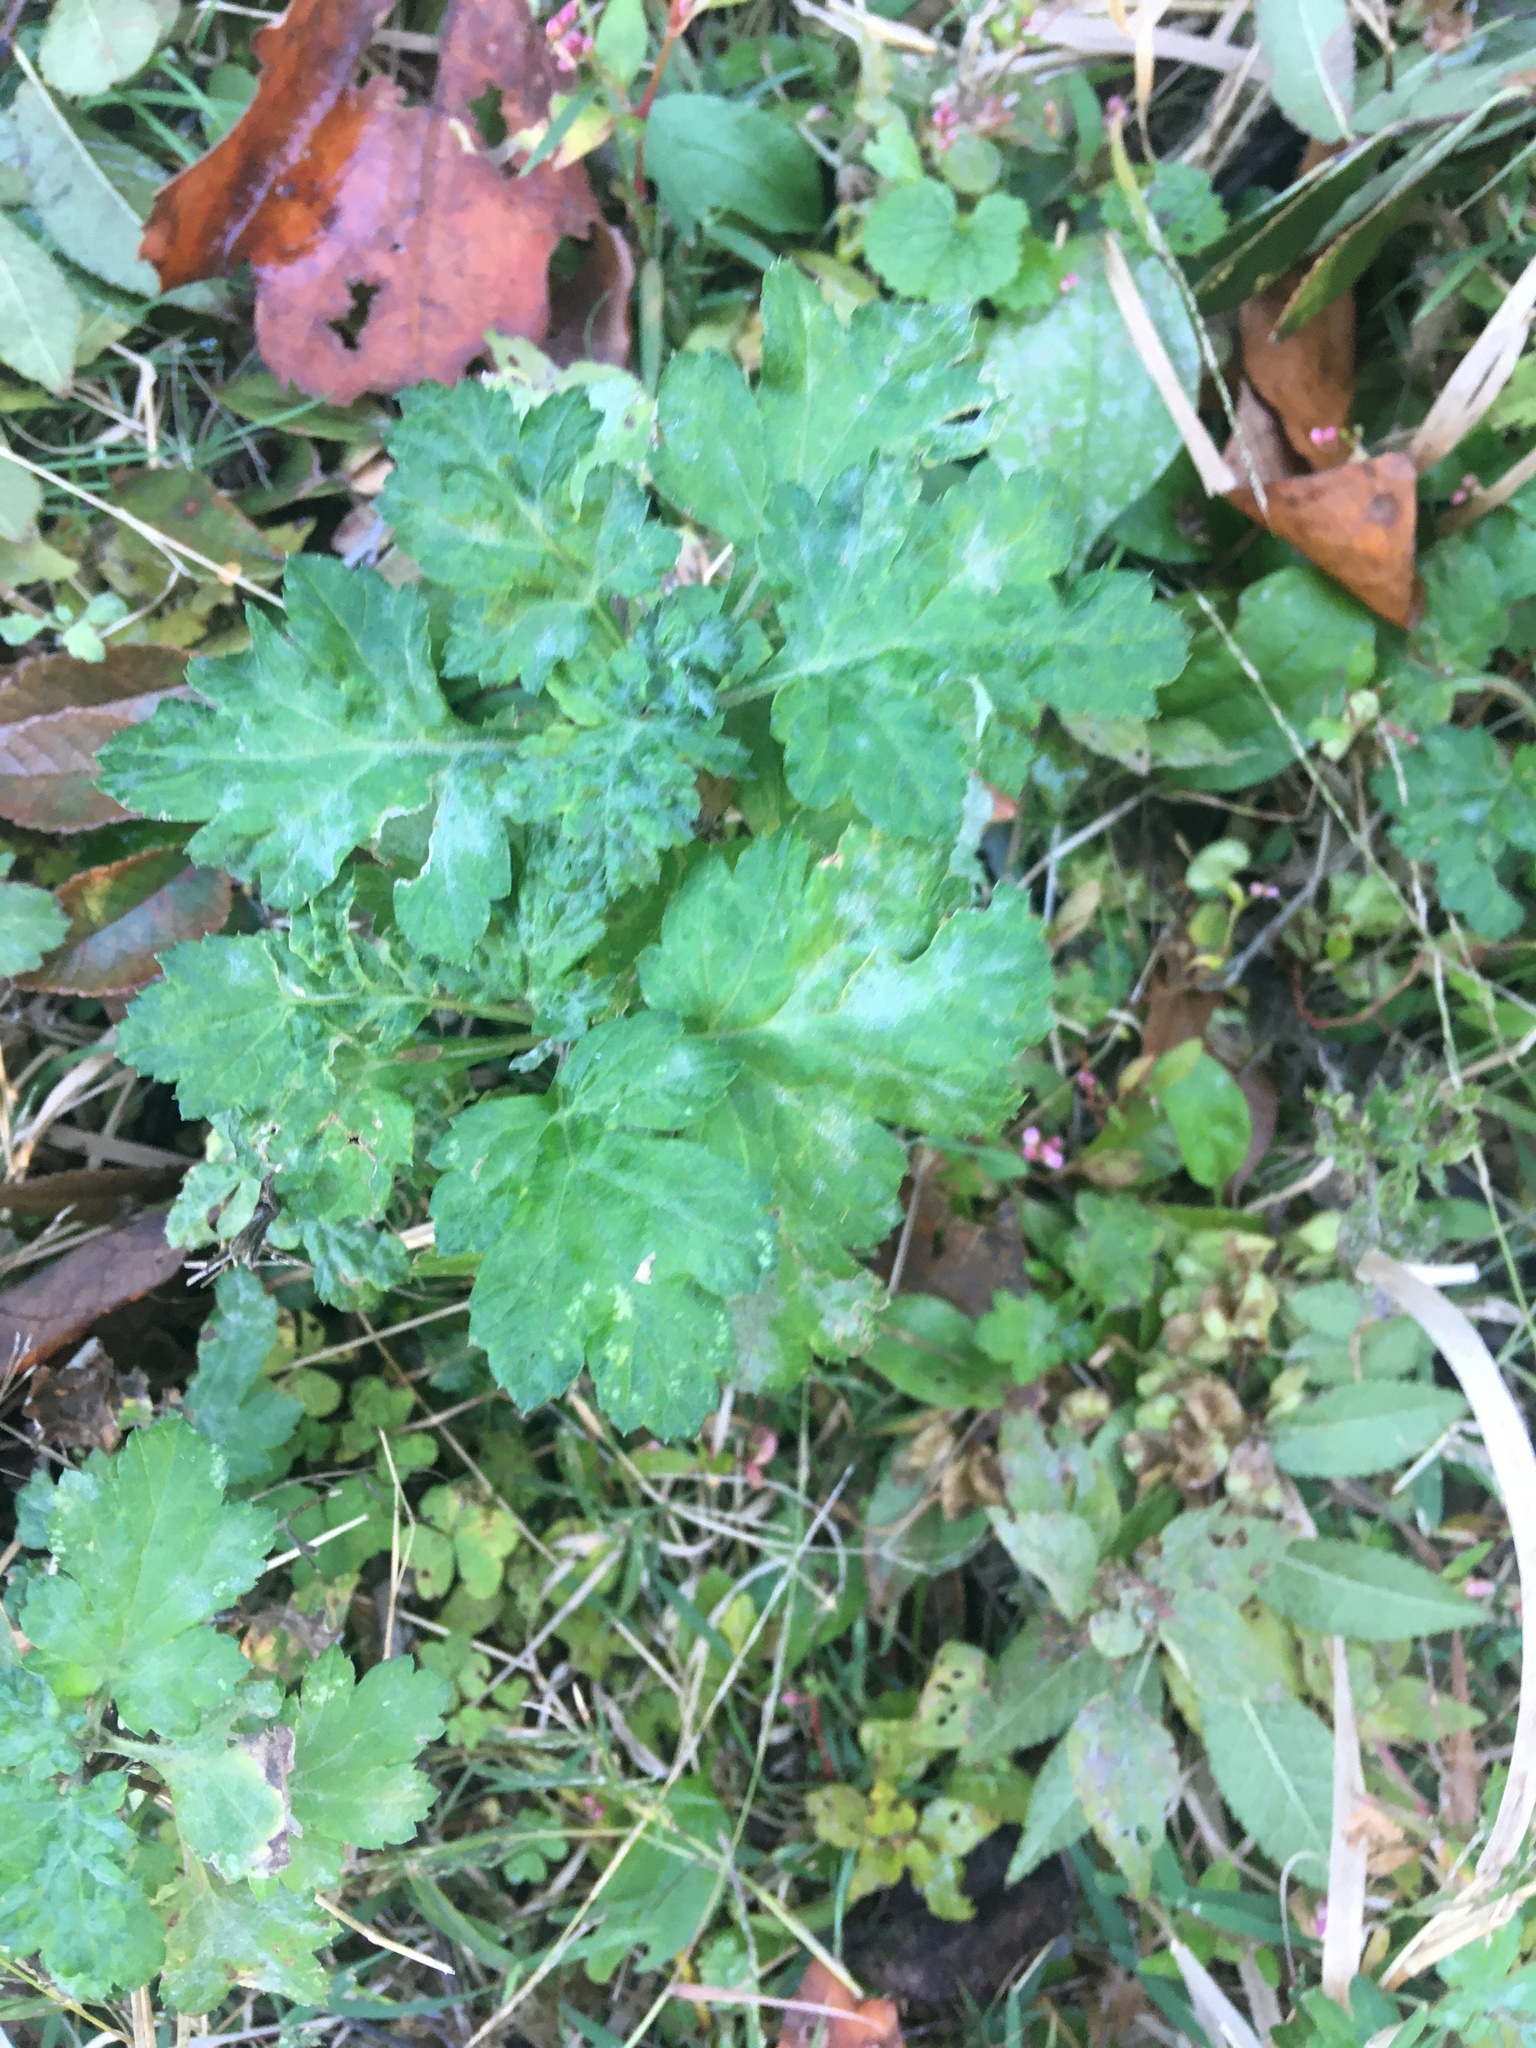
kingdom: Plantae
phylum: Tracheophyta
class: Magnoliopsida
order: Asterales
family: Asteraceae
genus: Artemisia
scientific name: Artemisia vulgaris
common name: Mugwort
